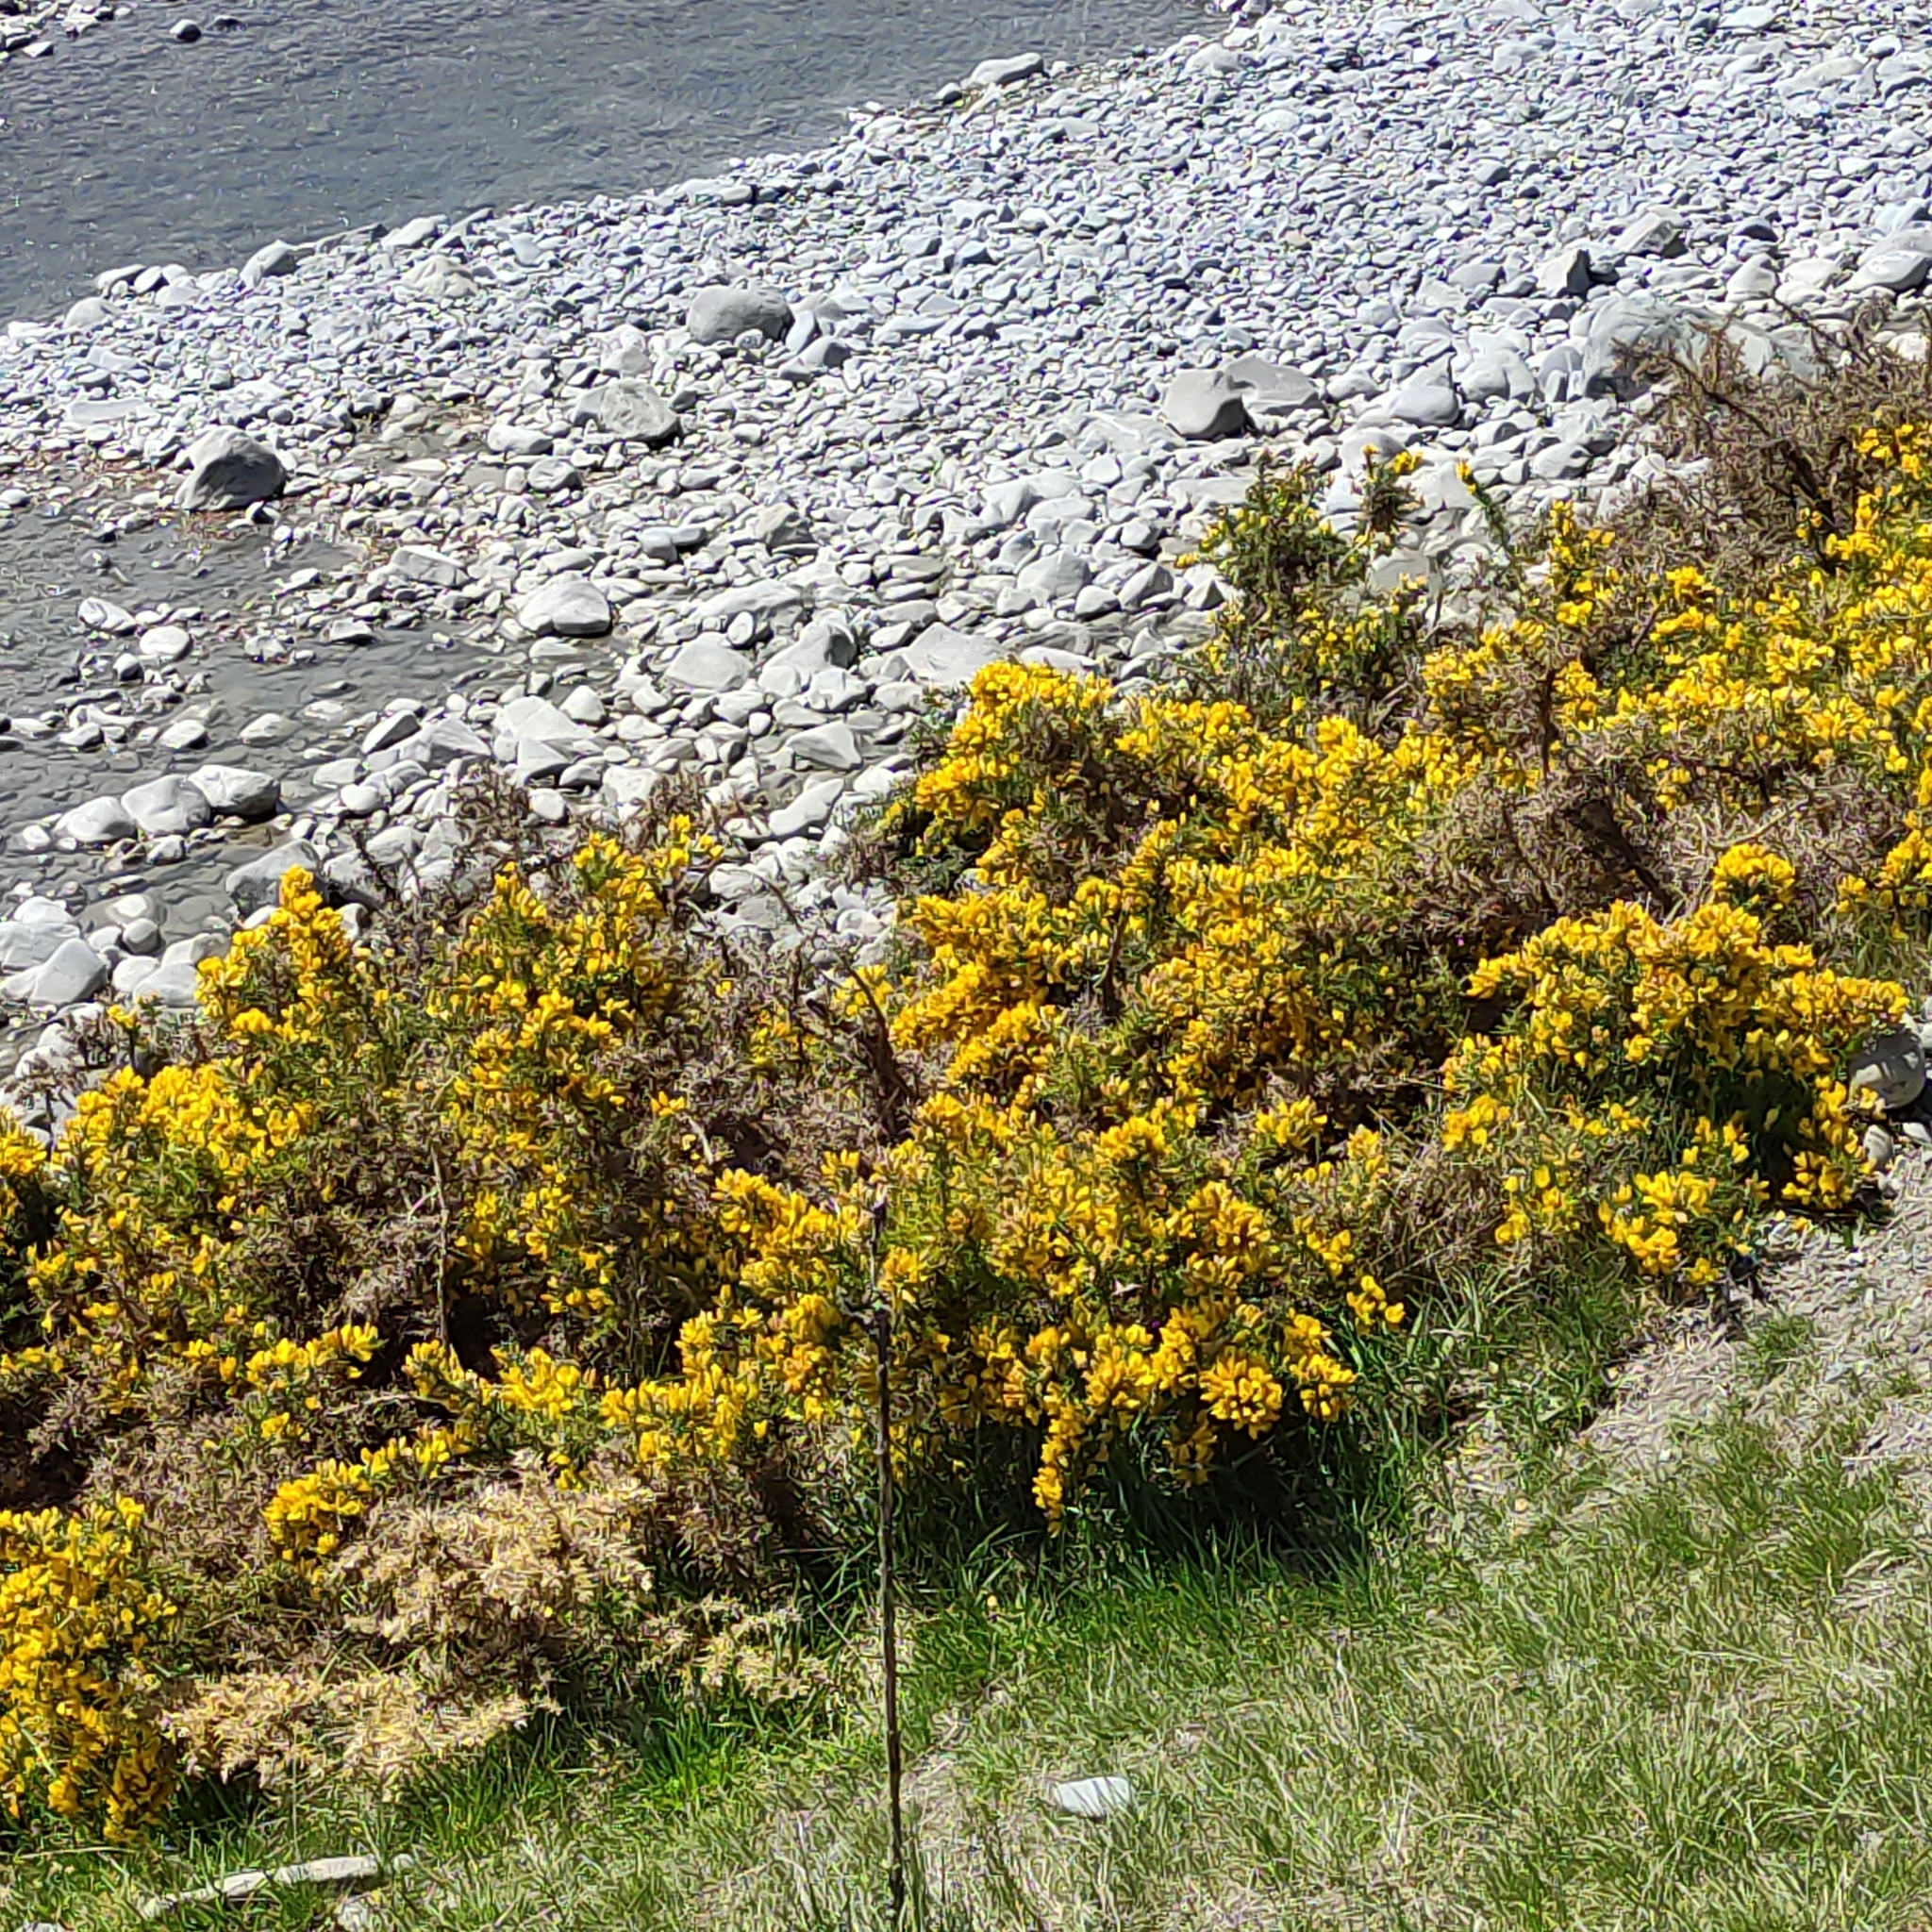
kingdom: Plantae
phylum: Tracheophyta
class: Magnoliopsida
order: Fabales
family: Fabaceae
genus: Ulex
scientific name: Ulex europaeus
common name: Common gorse
